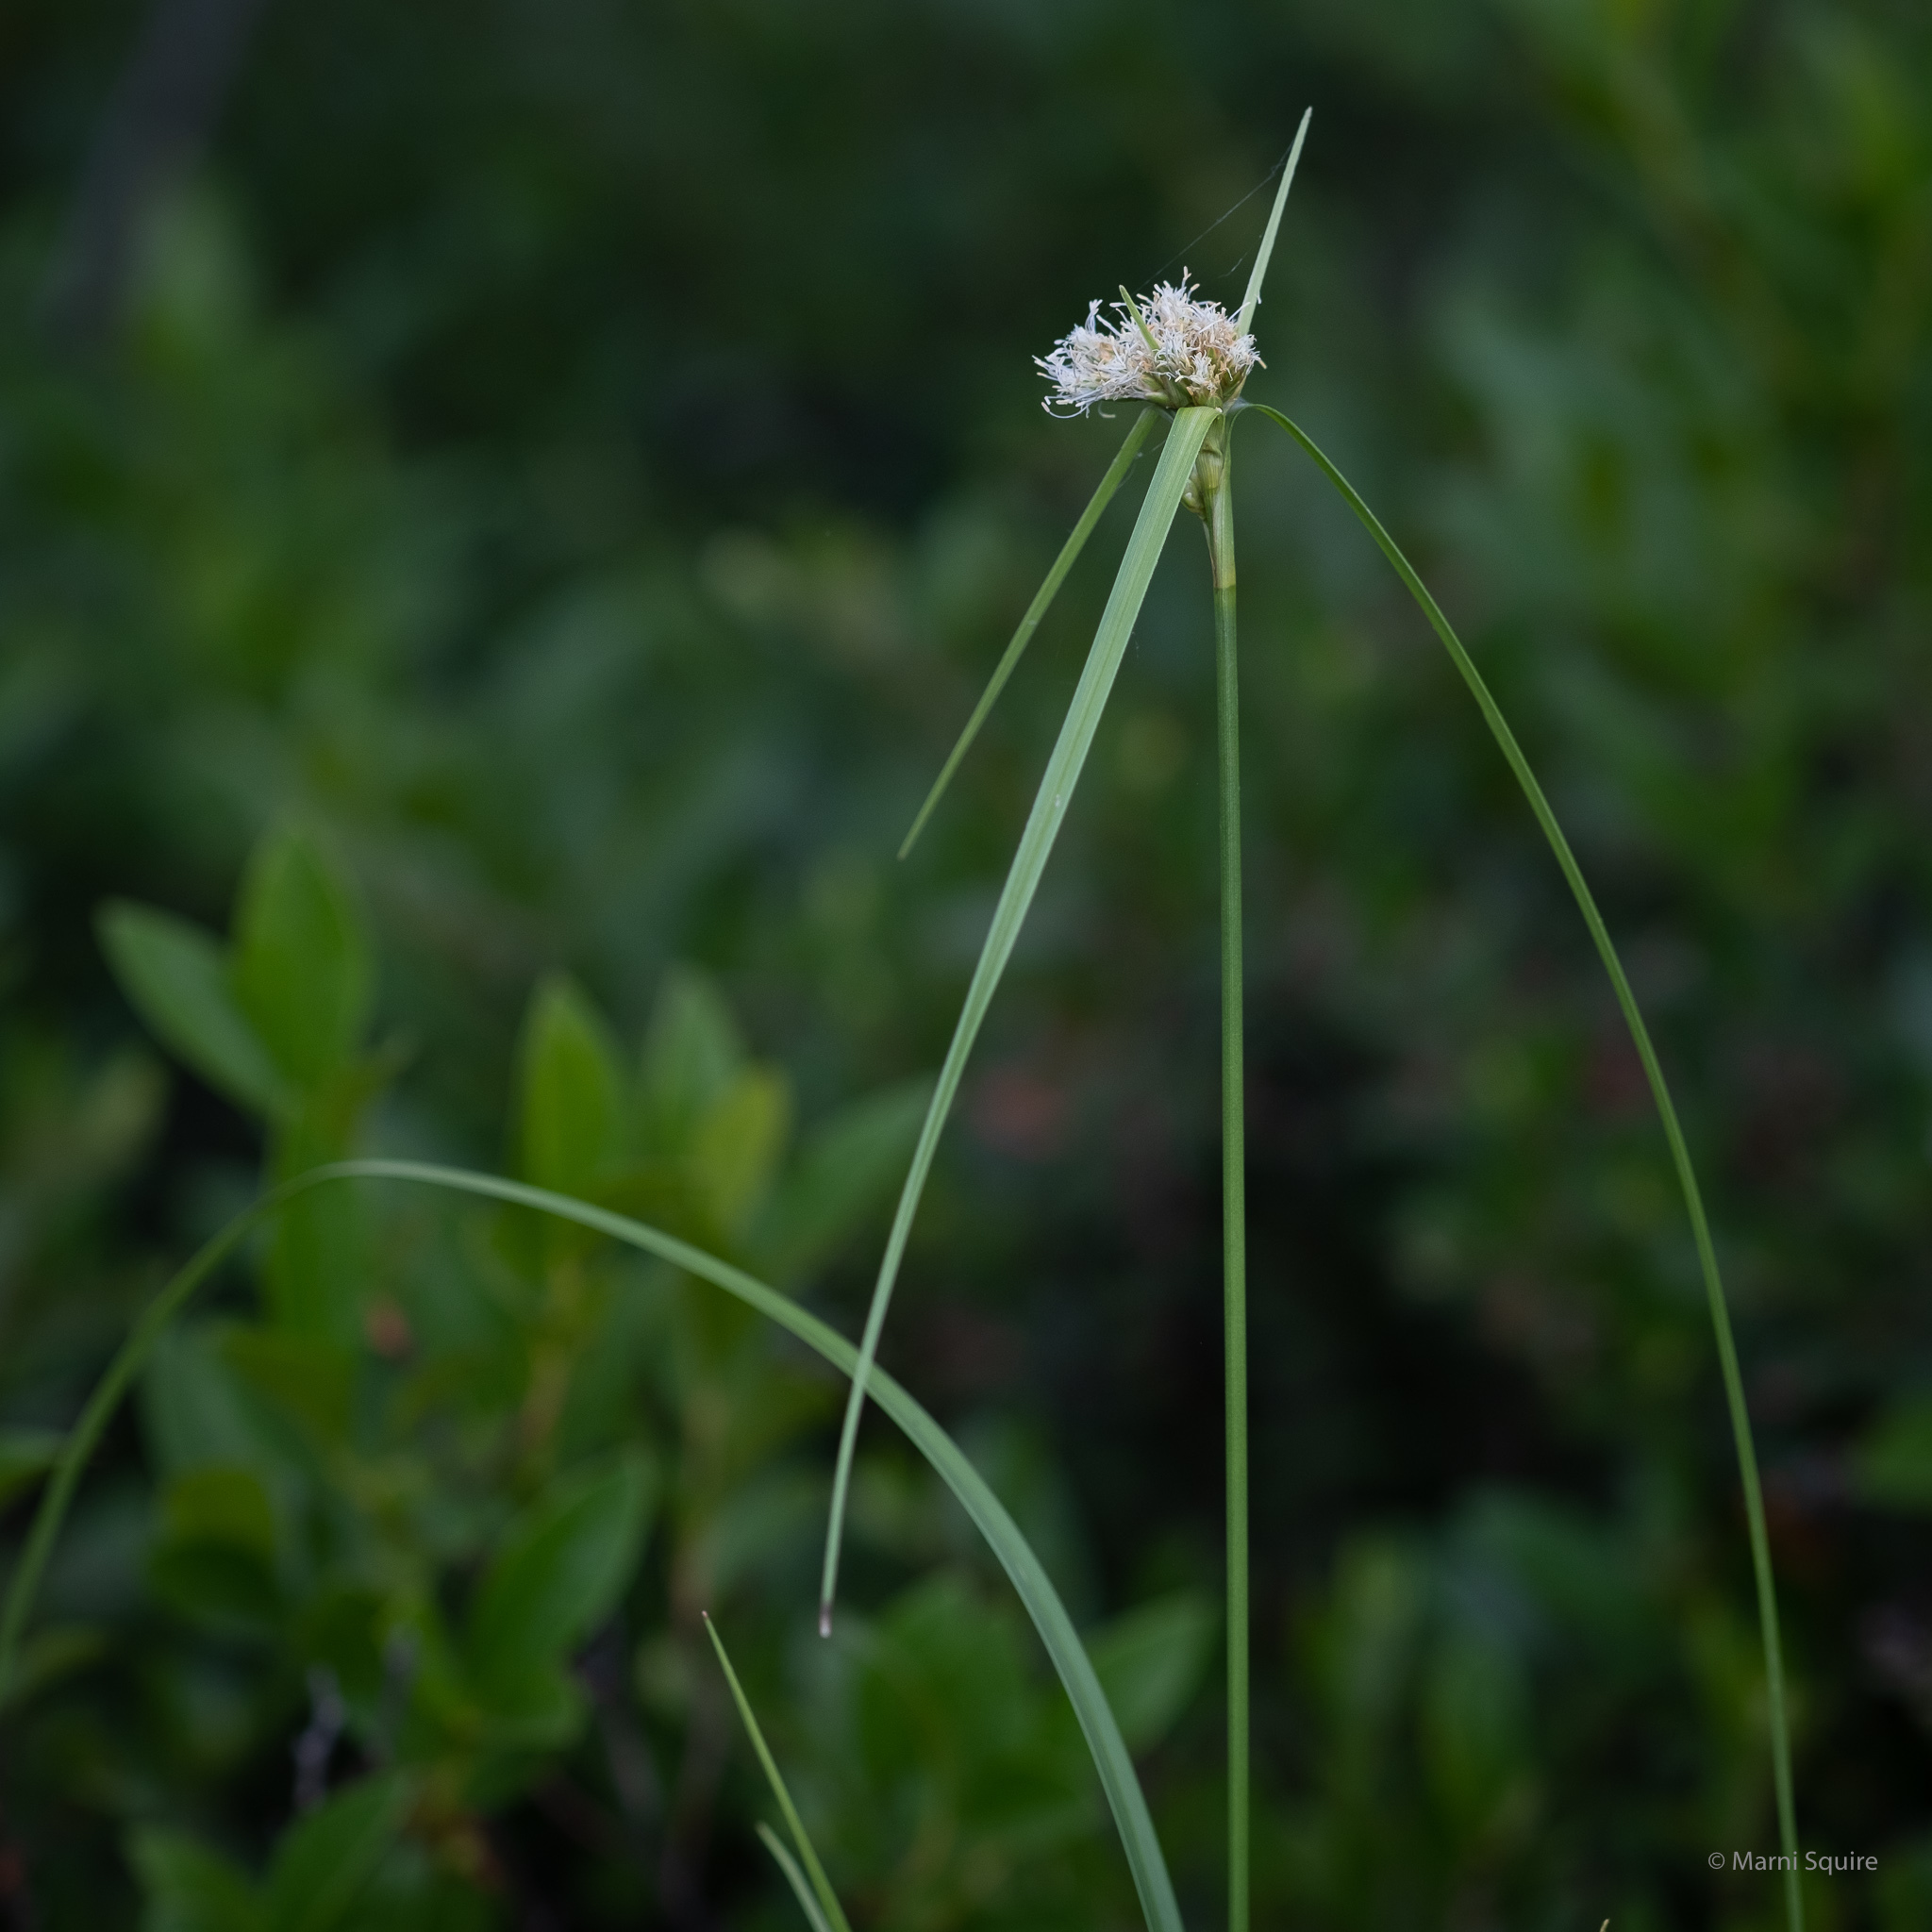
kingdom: Plantae
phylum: Tracheophyta
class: Liliopsida
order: Poales
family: Cyperaceae
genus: Eriophorum
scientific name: Eriophorum virginicum
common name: Tawny cottongrass
